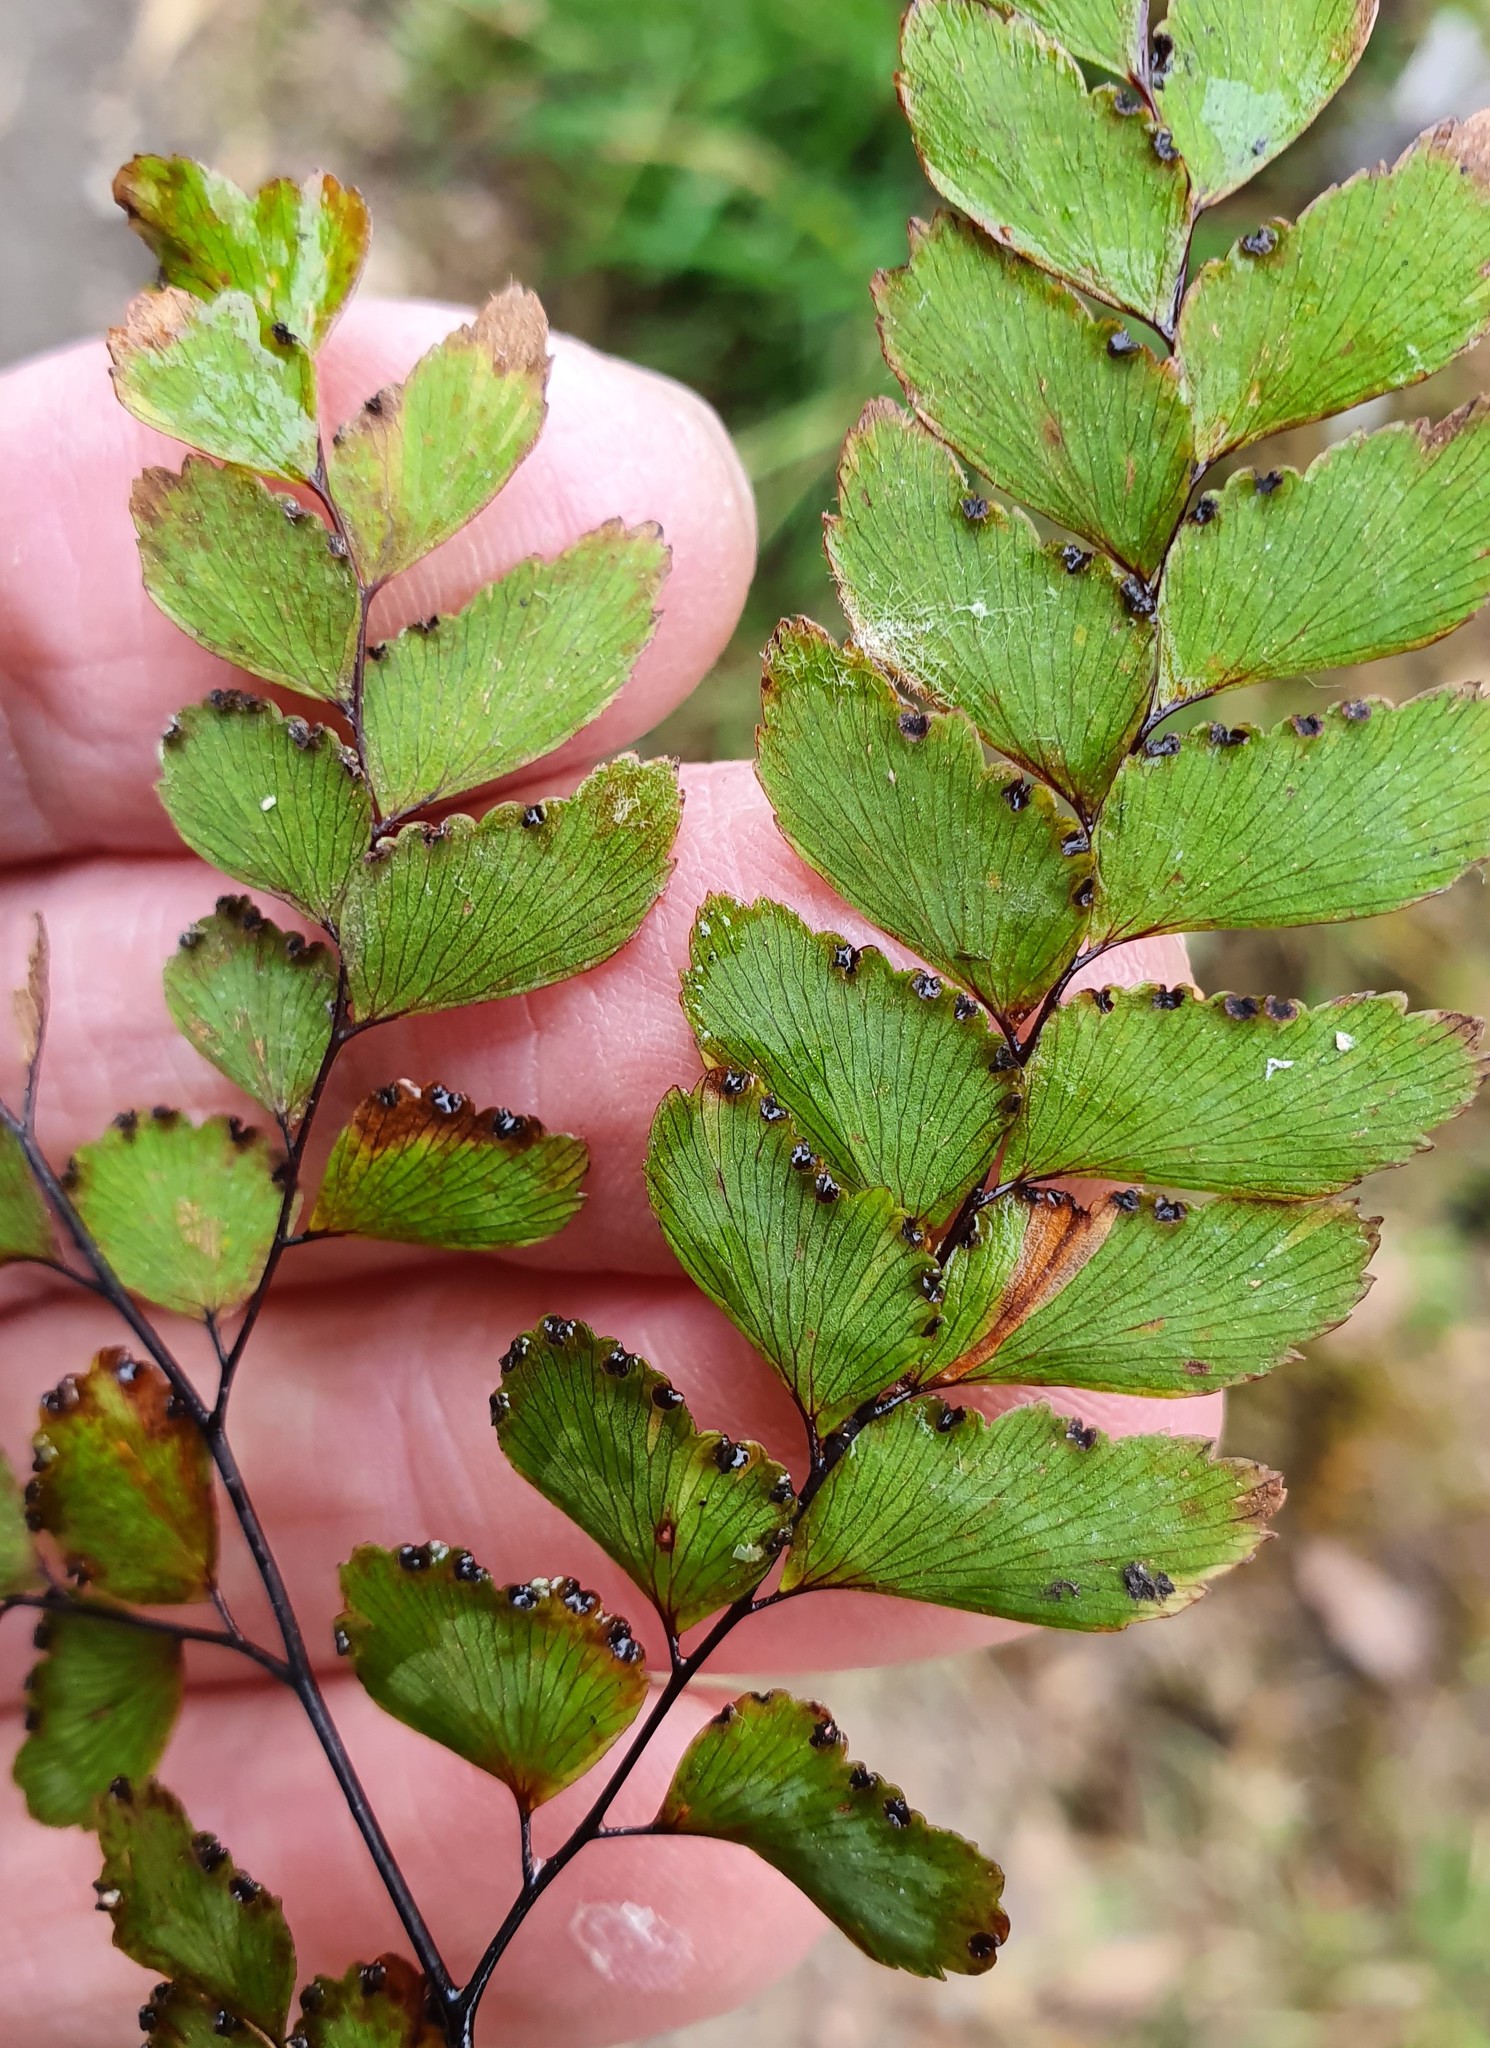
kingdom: Plantae
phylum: Tracheophyta
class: Polypodiopsida
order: Polypodiales
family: Pteridaceae
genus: Adiantum
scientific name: Adiantum cunninghamii
